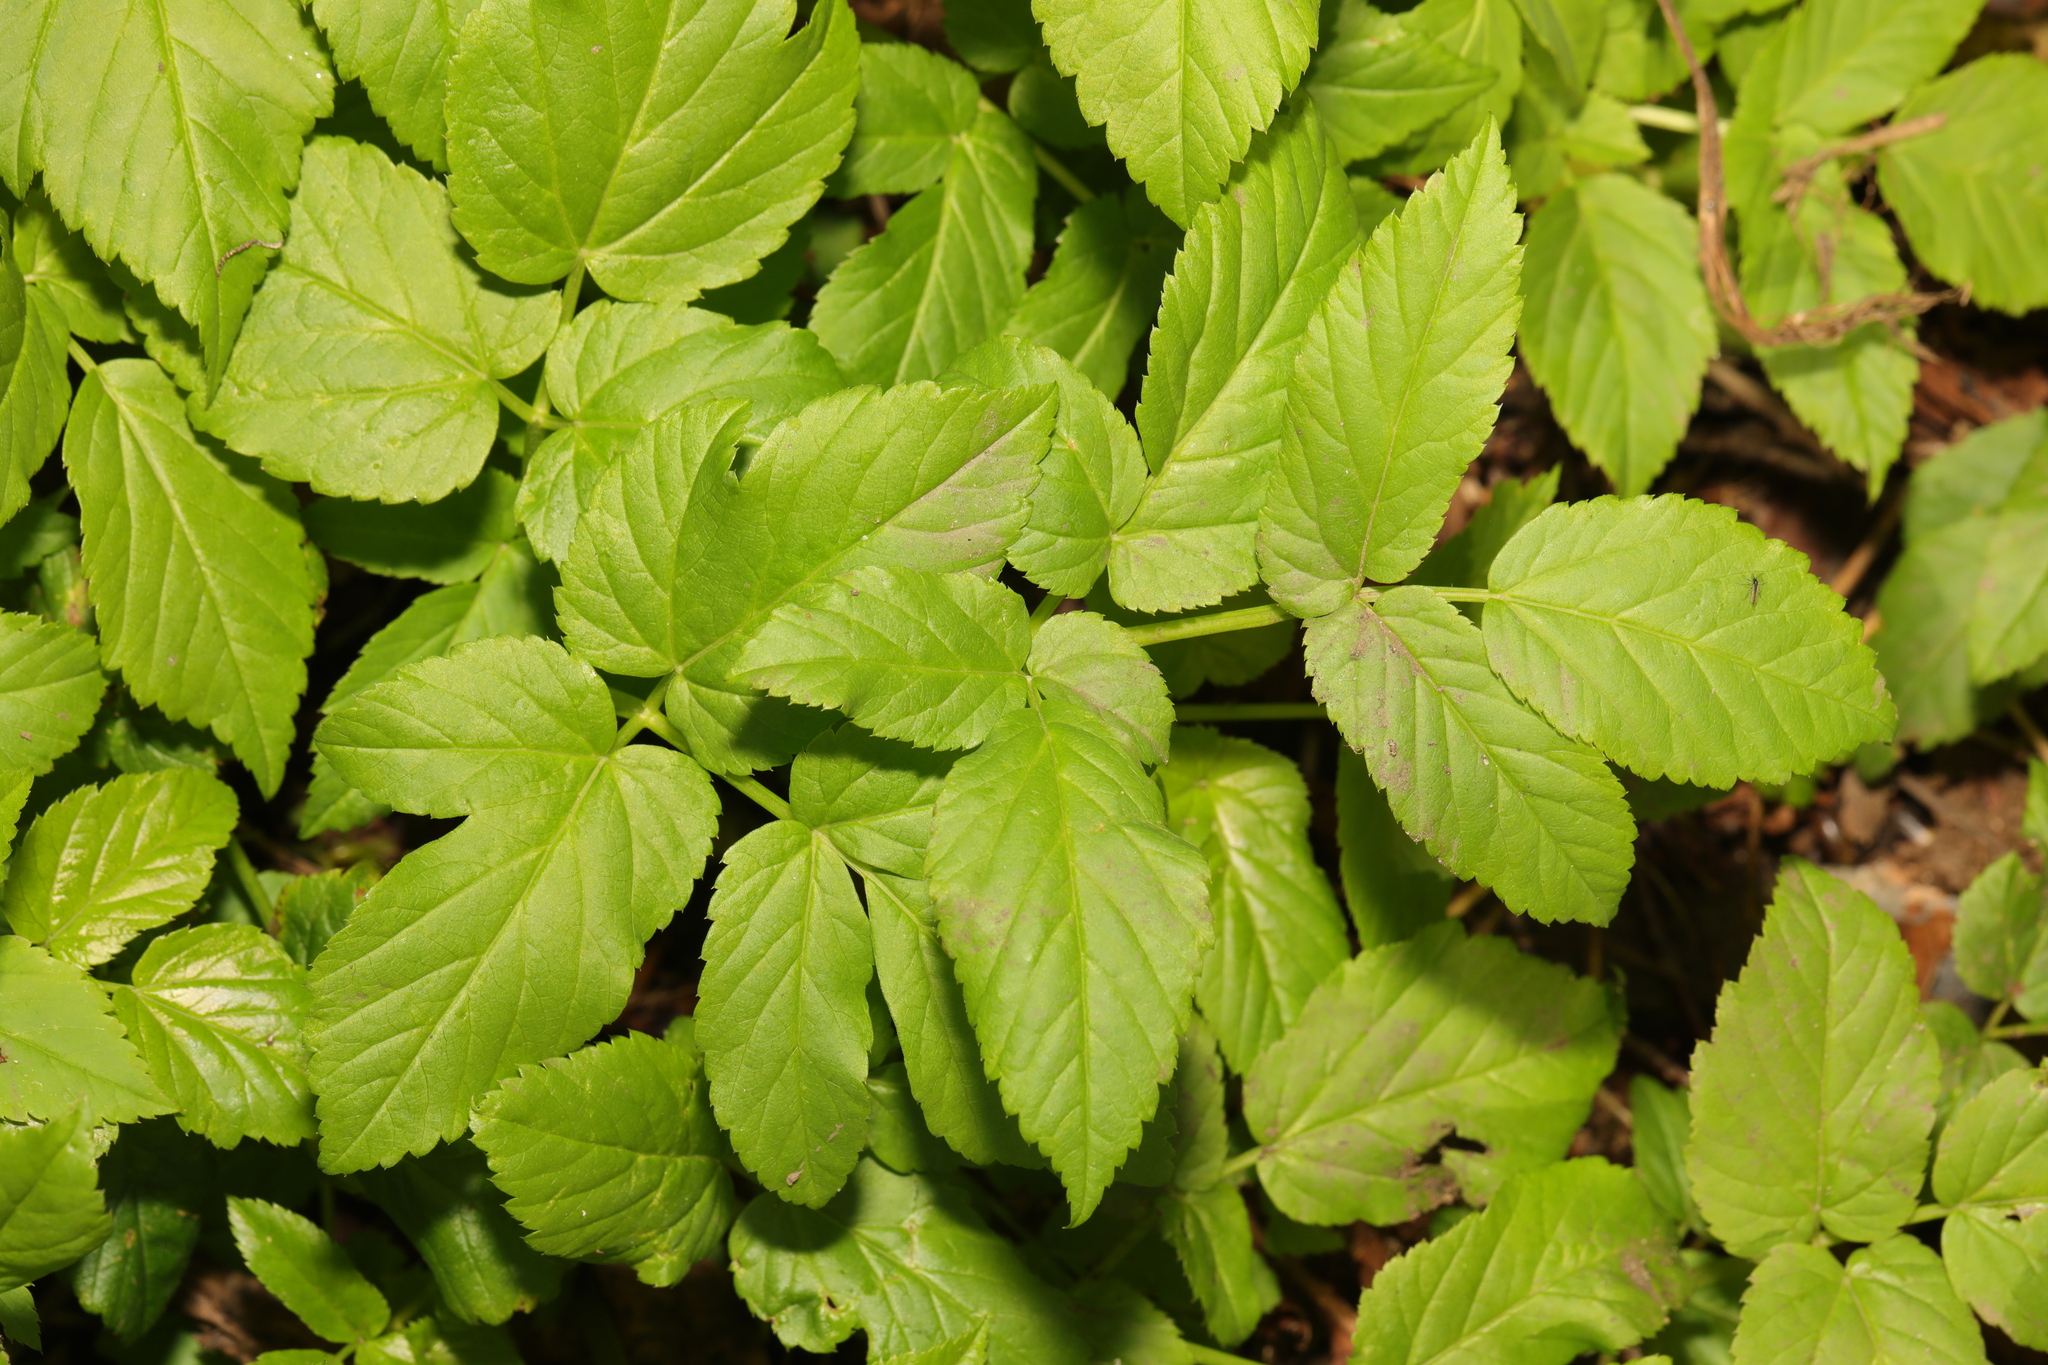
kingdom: Plantae
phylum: Tracheophyta
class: Magnoliopsida
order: Apiales
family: Apiaceae
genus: Aegopodium
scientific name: Aegopodium podagraria
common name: Ground-elder
